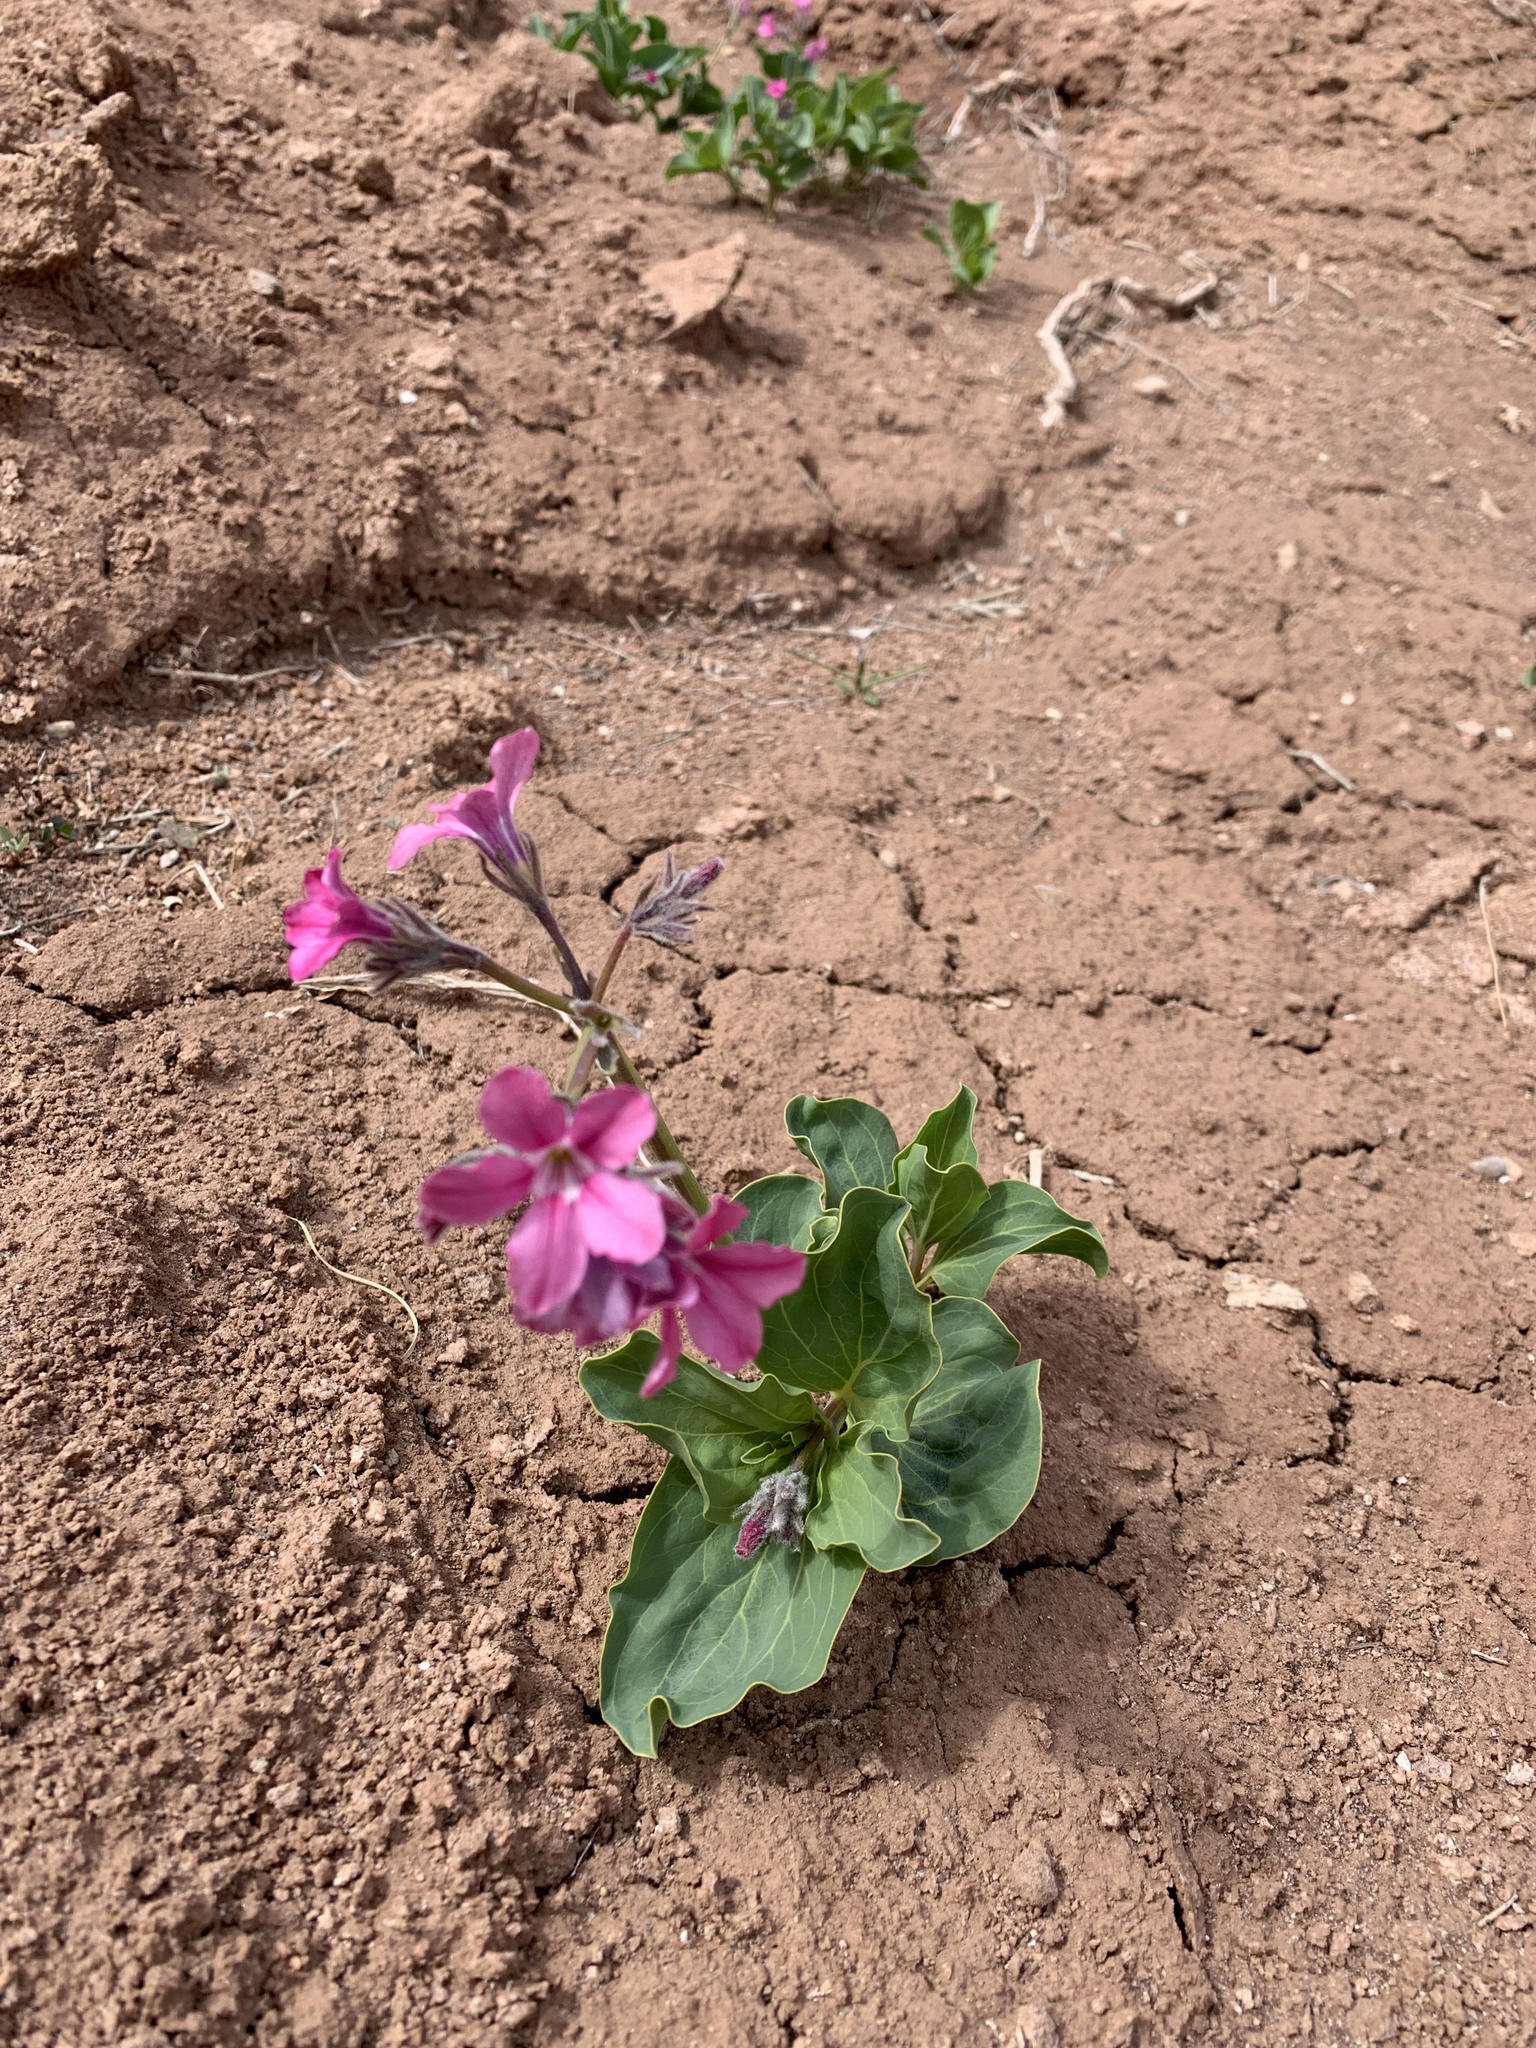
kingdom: Plantae
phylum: Tracheophyta
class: Magnoliopsida
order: Gentianales
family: Apocynaceae
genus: Cycladenia
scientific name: Cycladenia humilis
